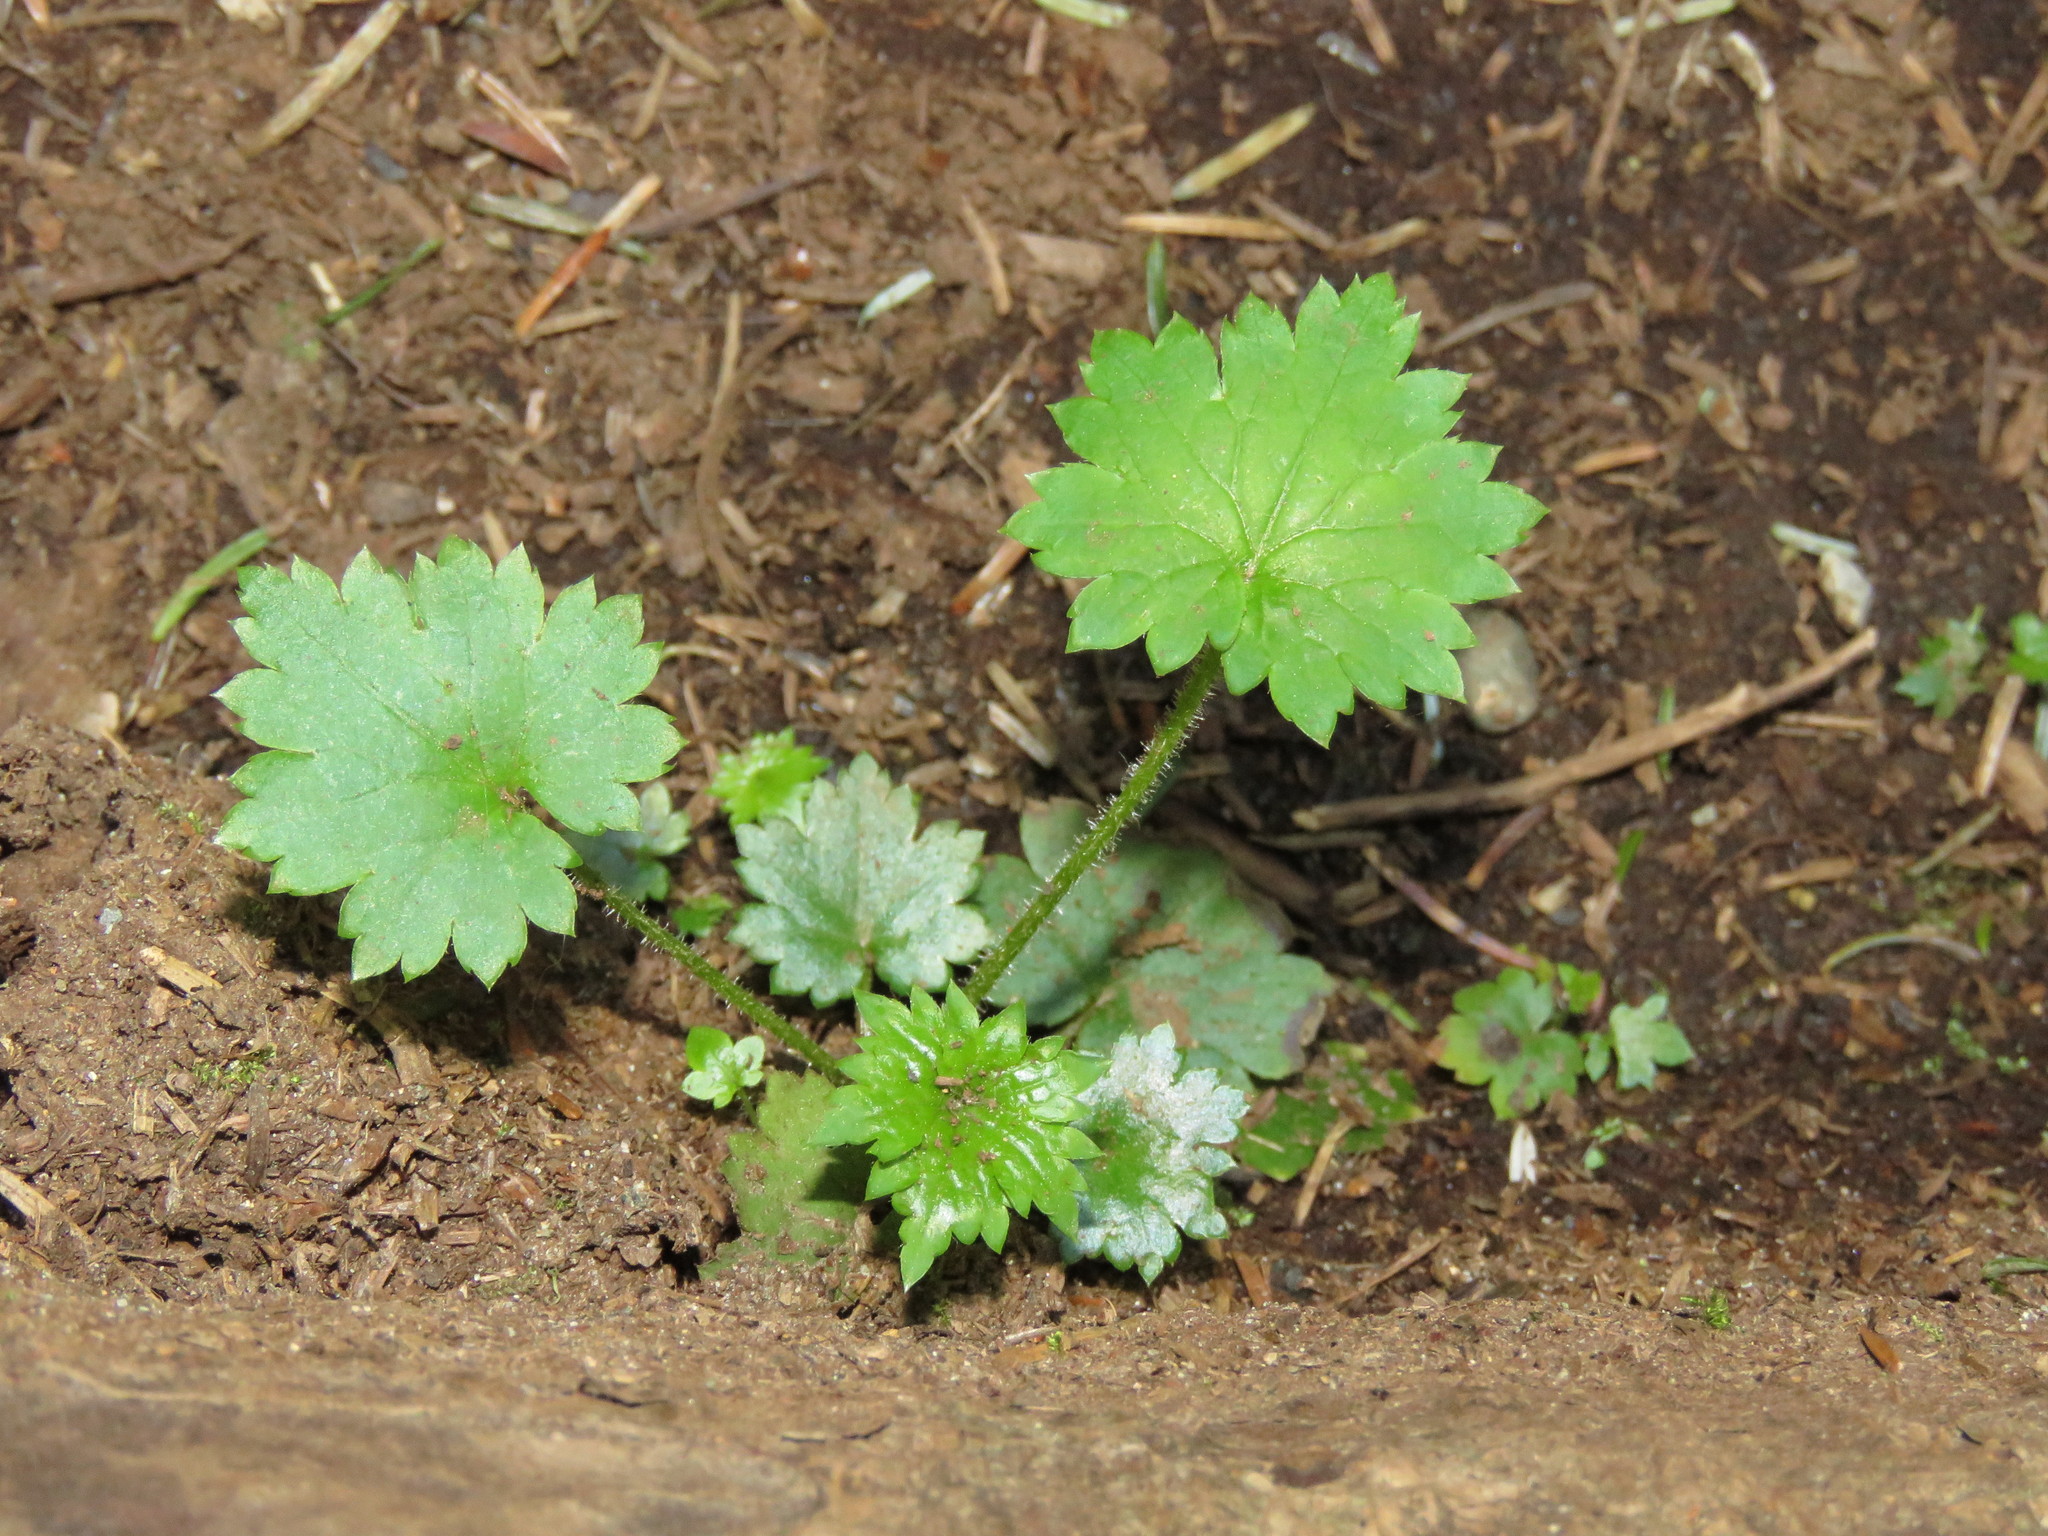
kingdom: Plantae
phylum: Tracheophyta
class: Magnoliopsida
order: Saxifragales
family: Saxifragaceae
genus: Boykinia
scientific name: Boykinia occidentalis
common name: Coast boykinia
